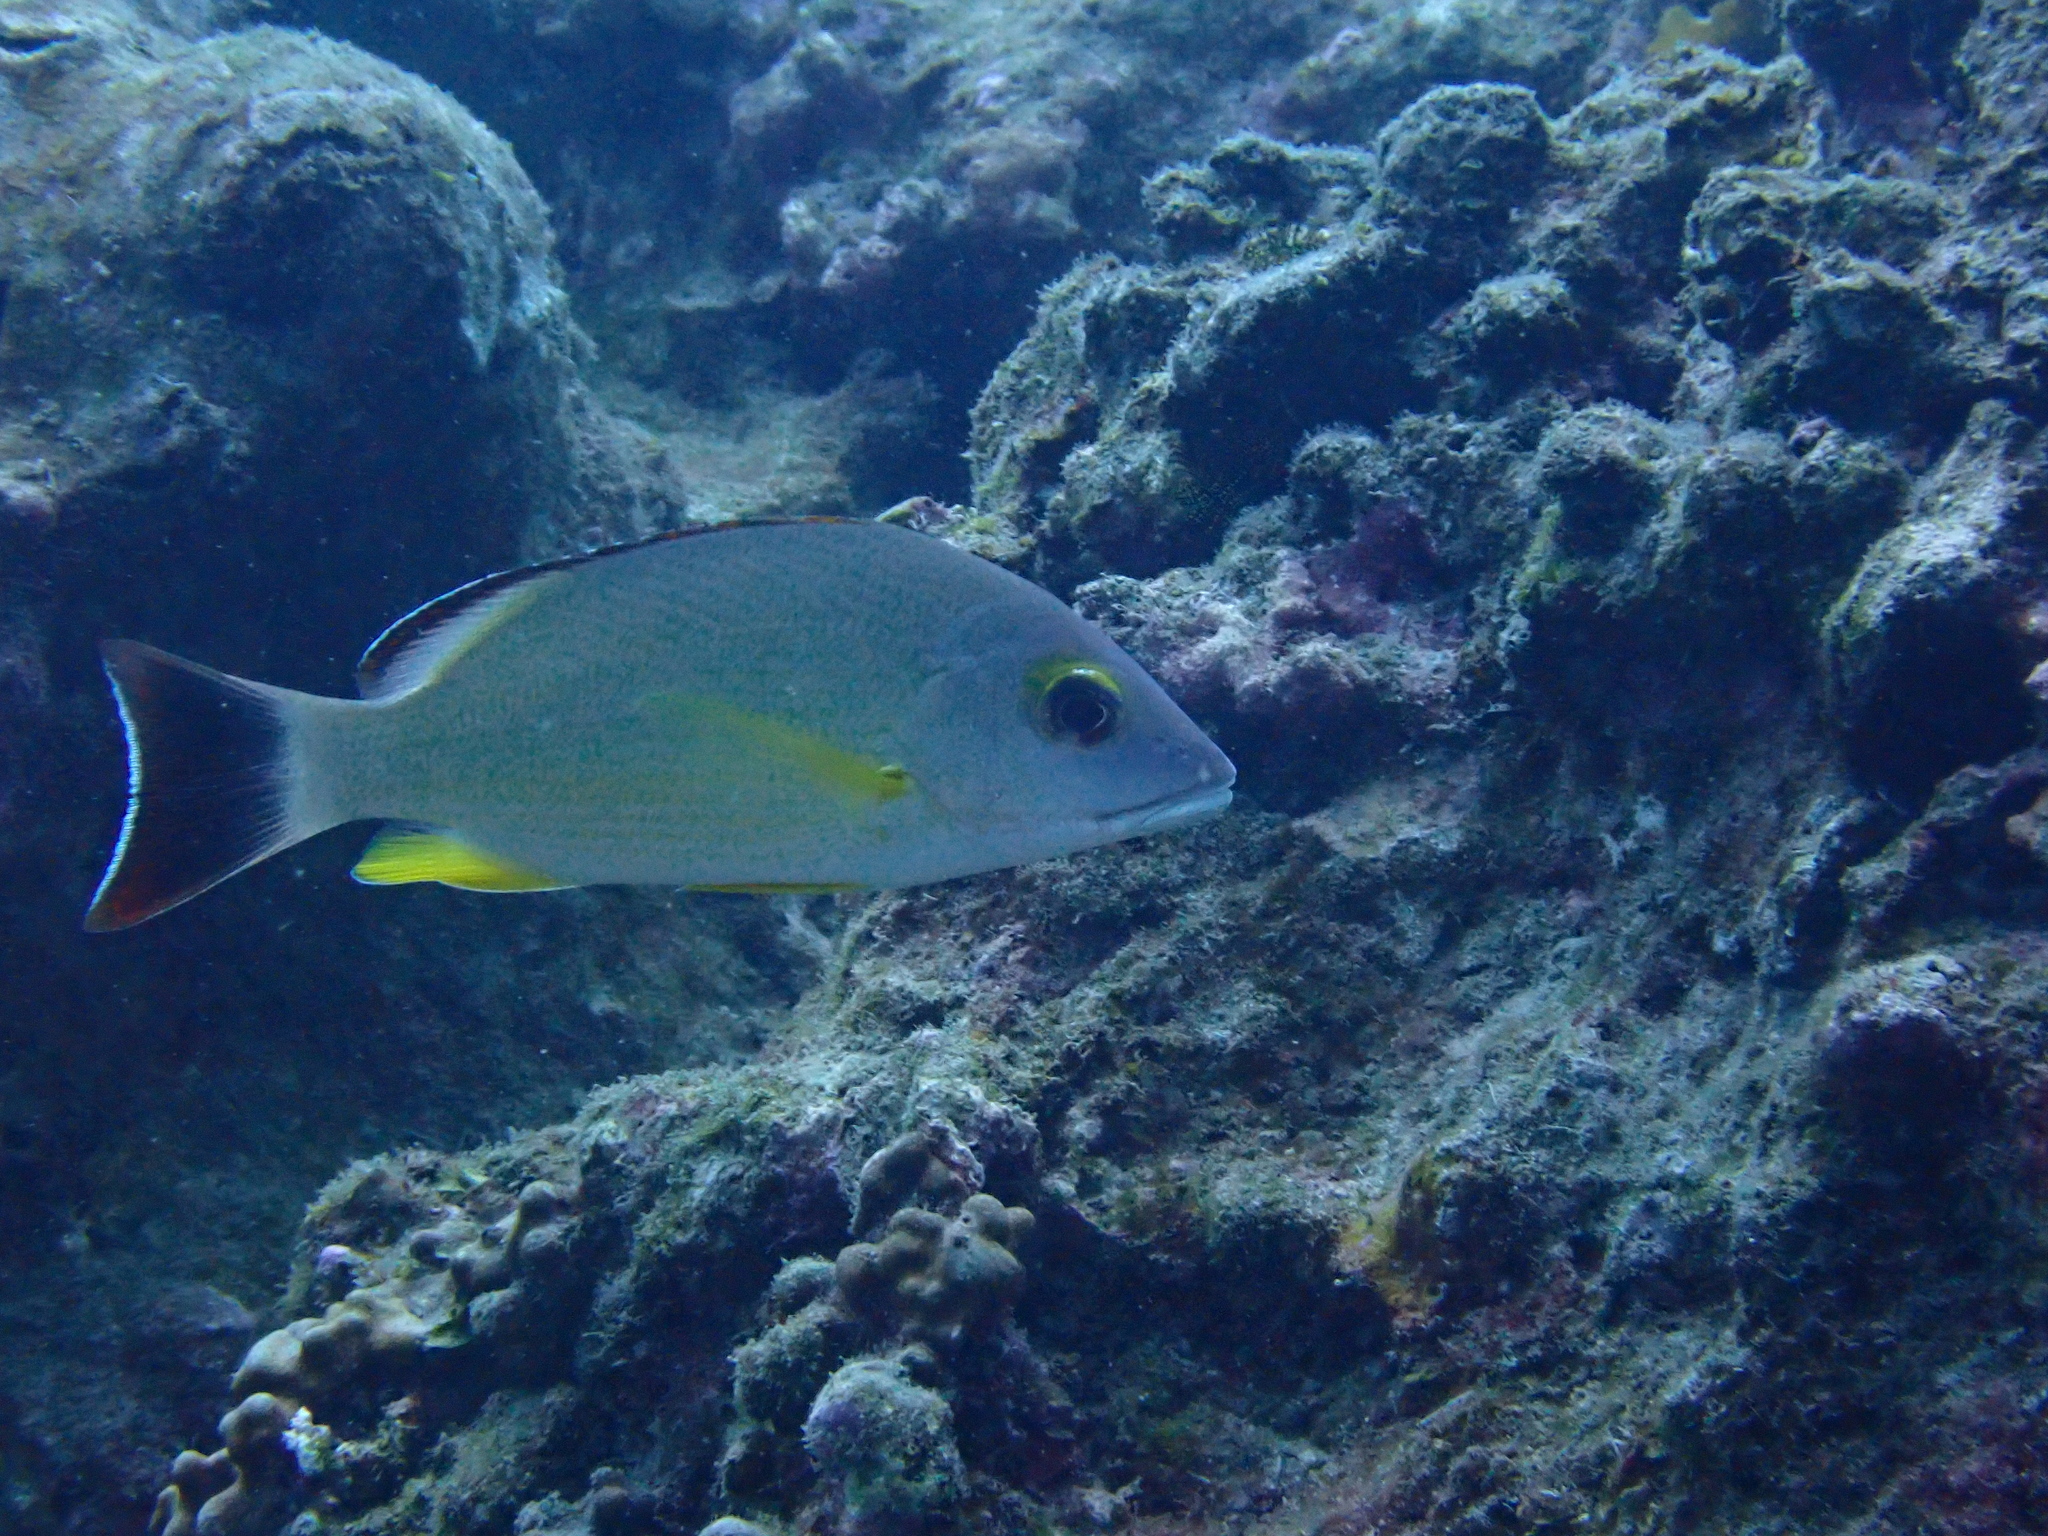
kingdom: Animalia
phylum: Chordata
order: Perciformes
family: Lutjanidae
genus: Lutjanus
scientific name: Lutjanus fulvus
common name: Blacktail snapper
